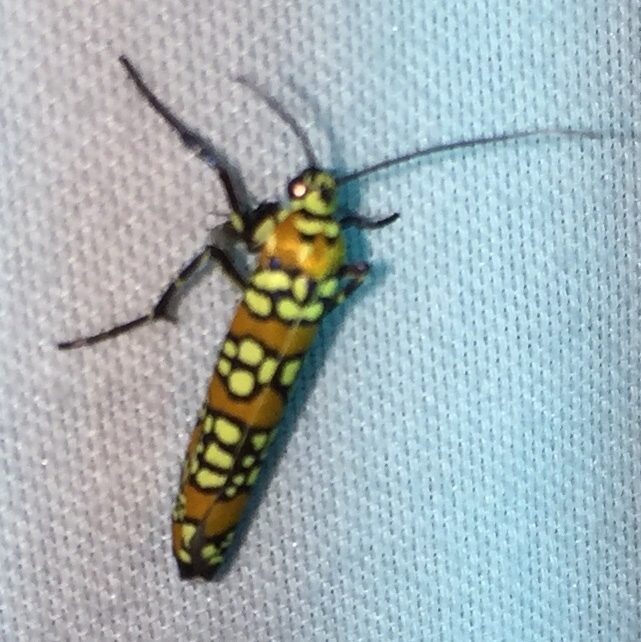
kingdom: Animalia
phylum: Arthropoda
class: Insecta
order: Lepidoptera
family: Attevidae
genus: Atteva
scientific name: Atteva punctella
